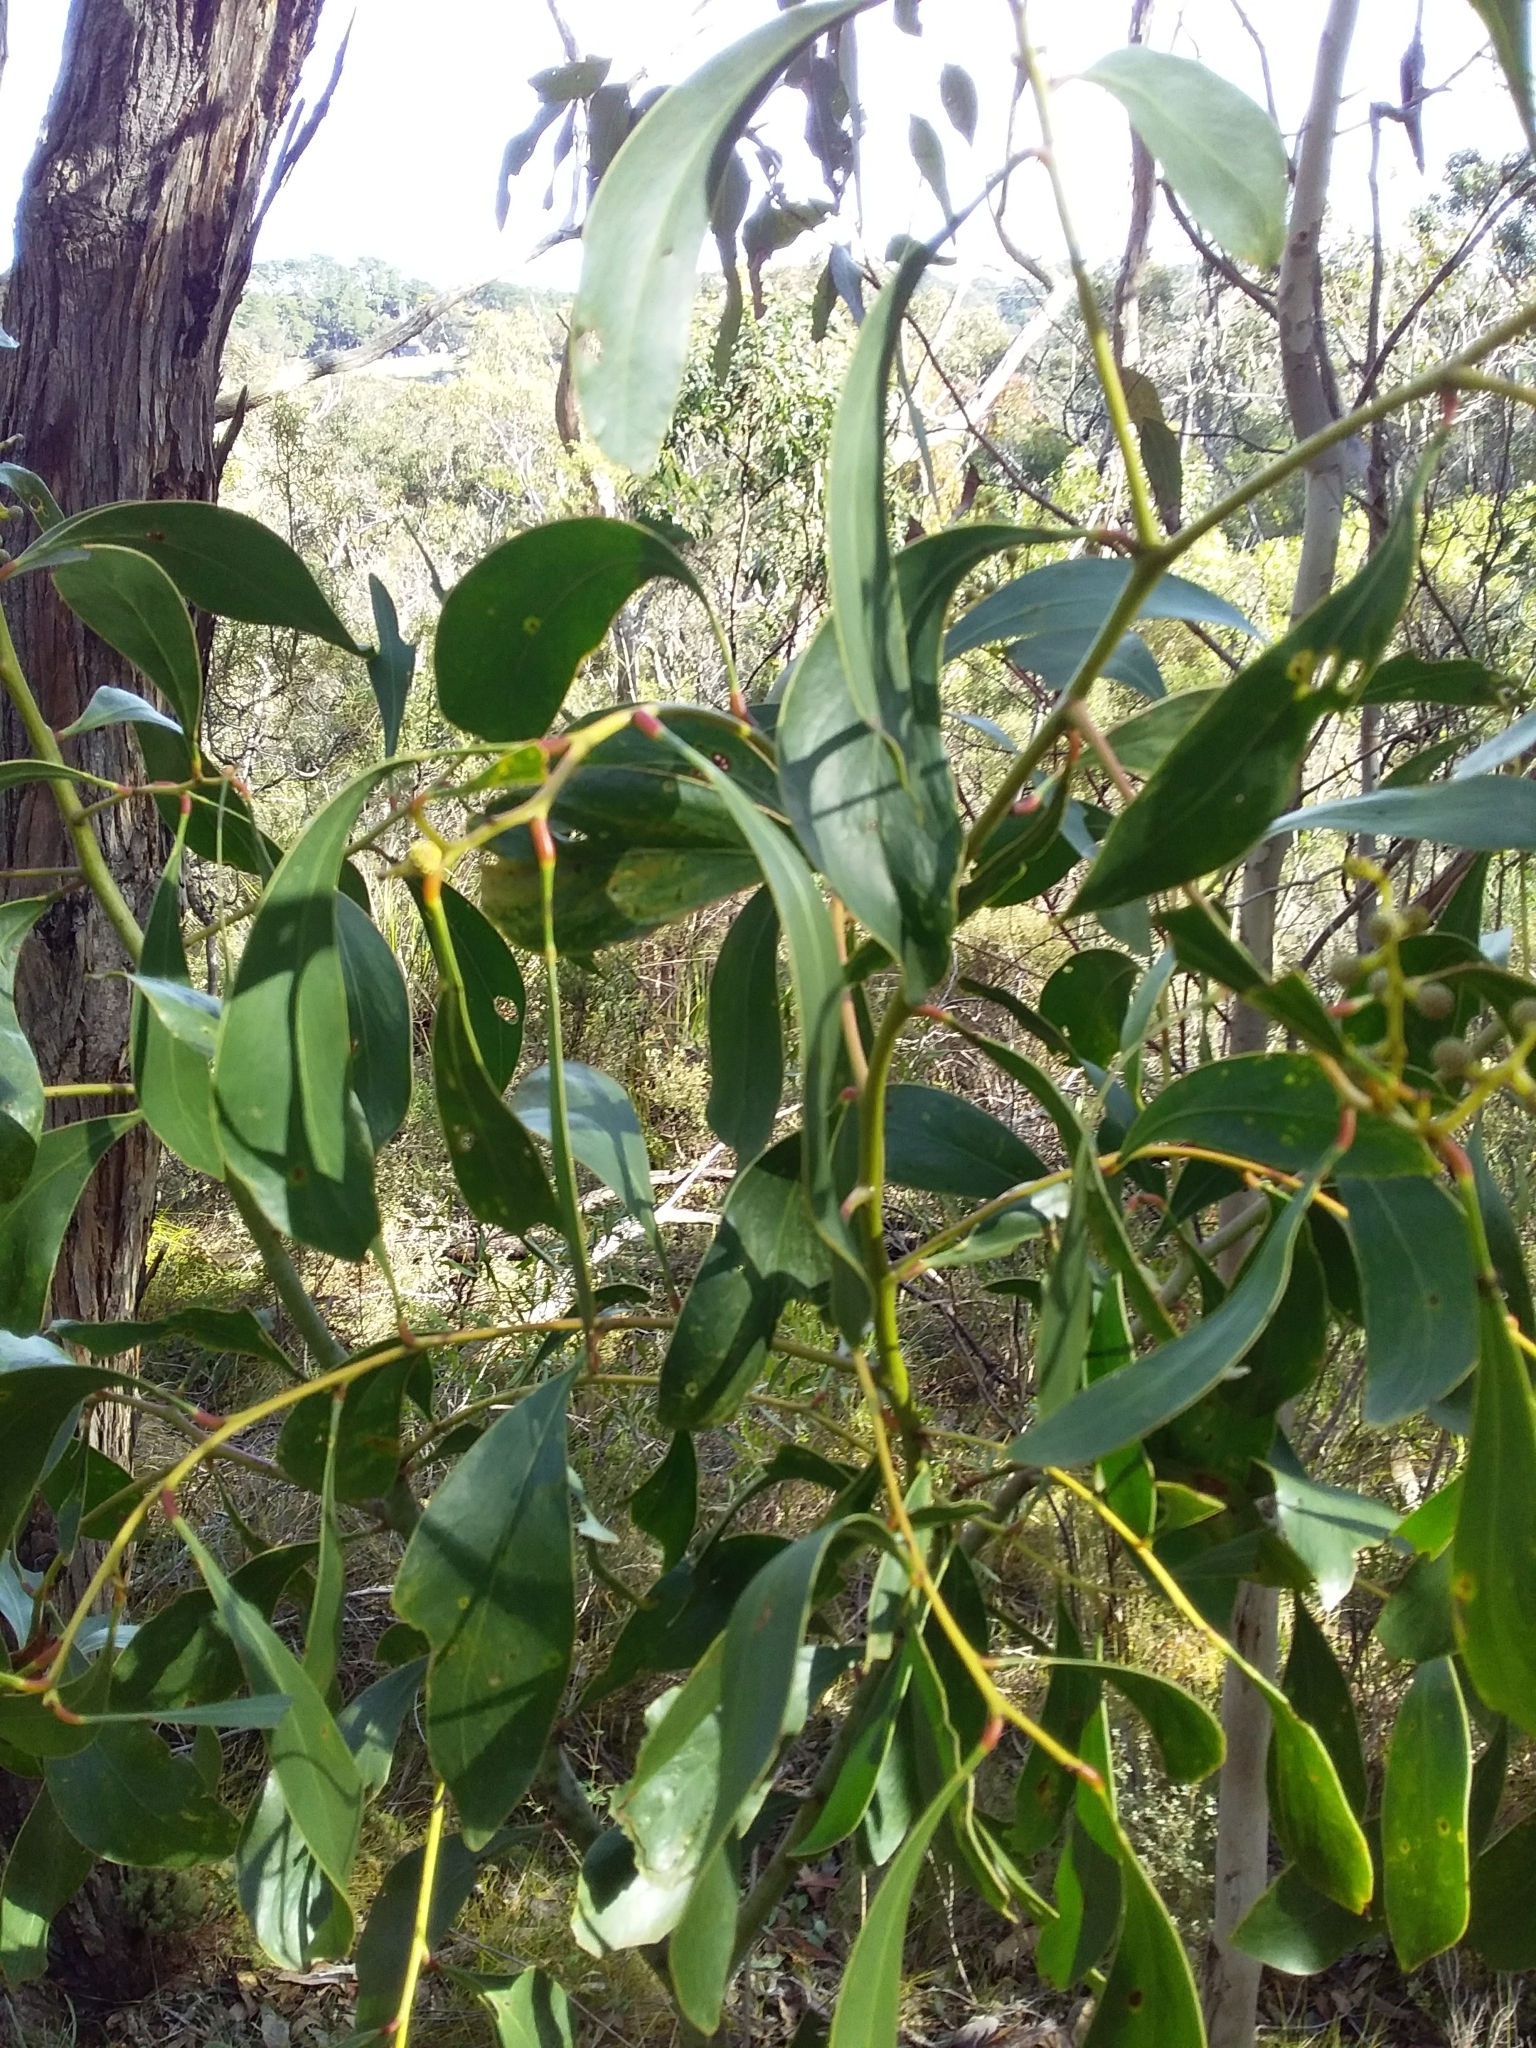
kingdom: Plantae
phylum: Tracheophyta
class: Magnoliopsida
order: Fabales
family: Fabaceae
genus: Acacia
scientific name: Acacia pycnantha
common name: Golden wattle
